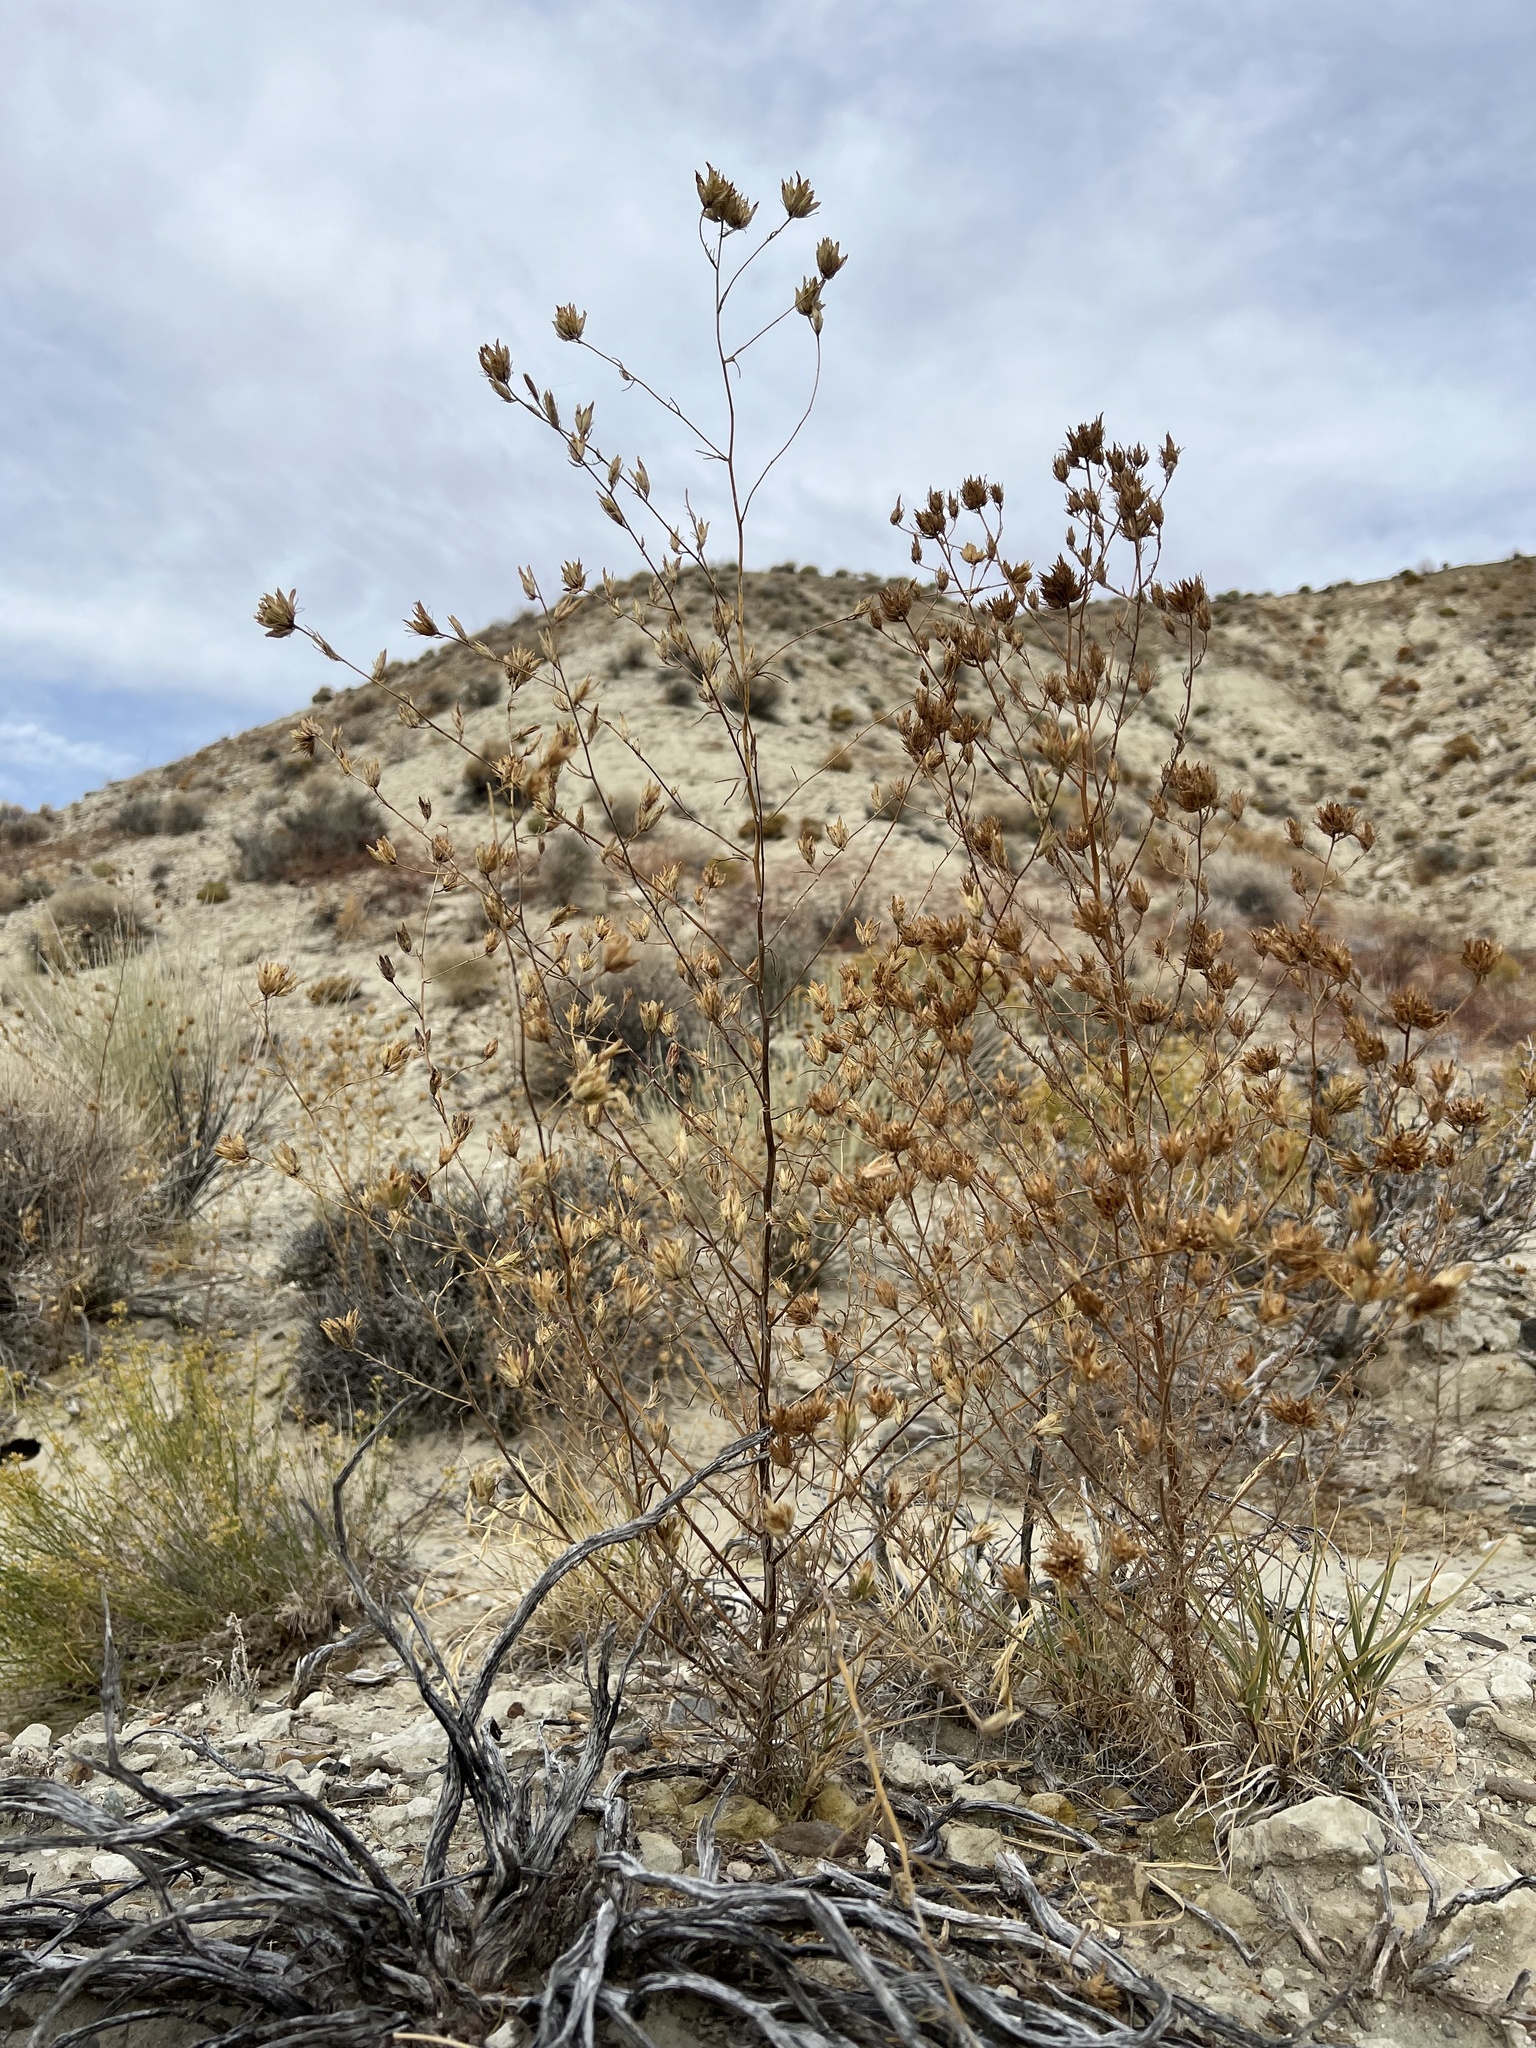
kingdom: Plantae
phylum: Tracheophyta
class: Magnoliopsida
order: Lamiales
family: Orobanchaceae
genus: Cordylanthus
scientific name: Cordylanthus ramosus
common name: Much-branched bird's-beak
